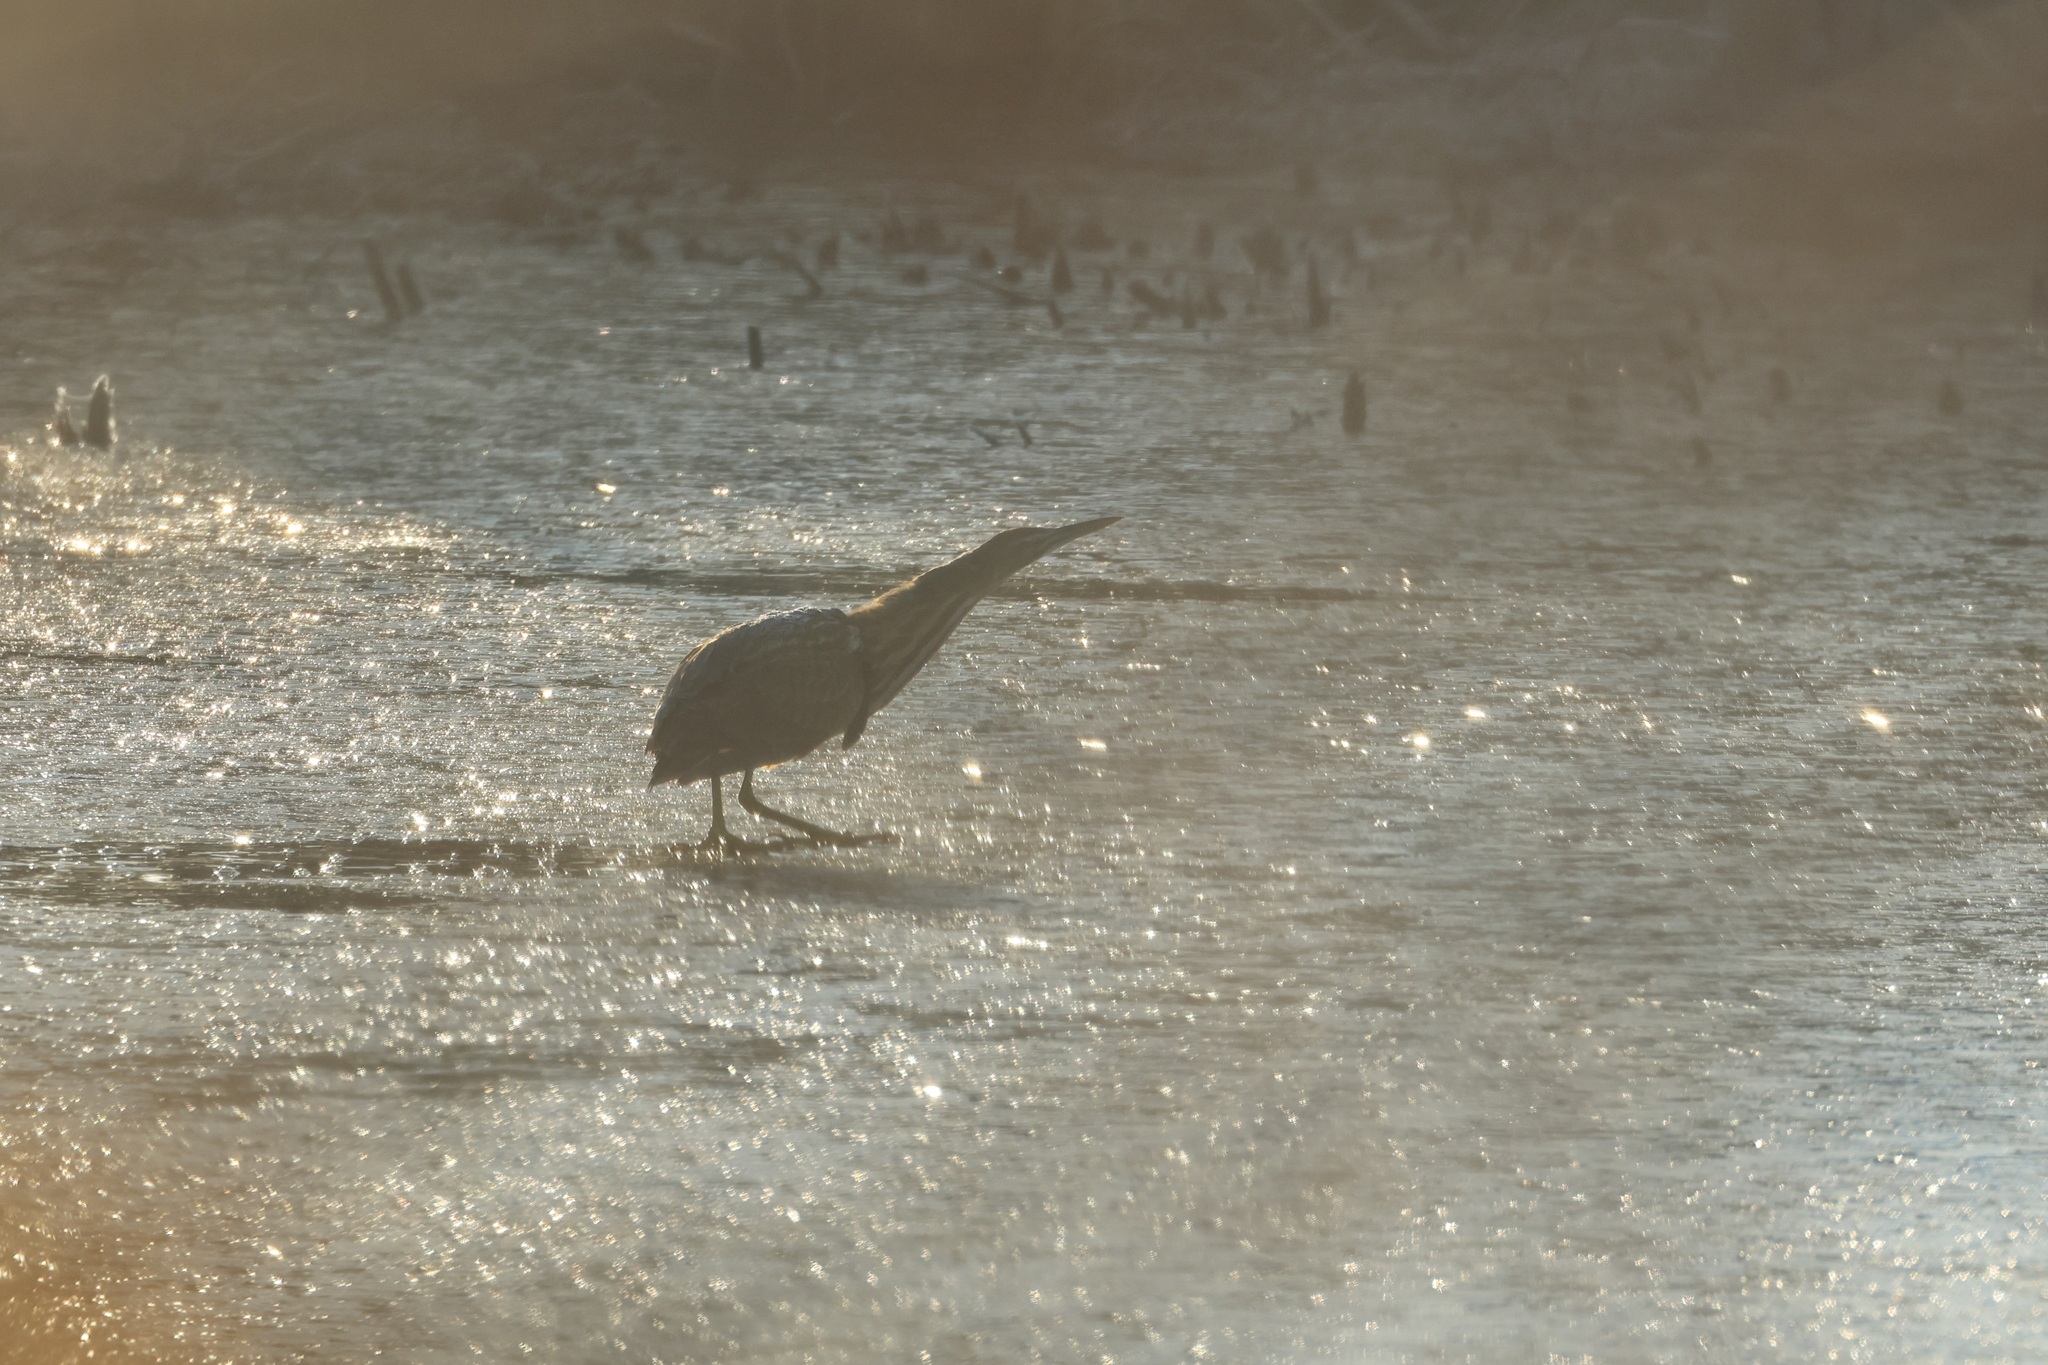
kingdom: Animalia
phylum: Chordata
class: Aves
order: Pelecaniformes
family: Ardeidae
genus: Botaurus
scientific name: Botaurus lentiginosus
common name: American bittern
